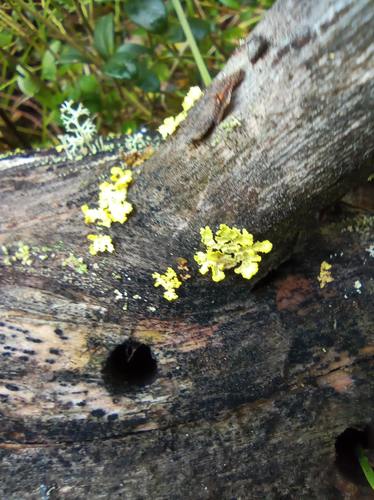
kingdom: Fungi
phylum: Ascomycota
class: Lecanoromycetes
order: Lecanorales
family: Parmeliaceae
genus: Vulpicida
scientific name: Vulpicida pinastri
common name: Powdered sunshine lichen
